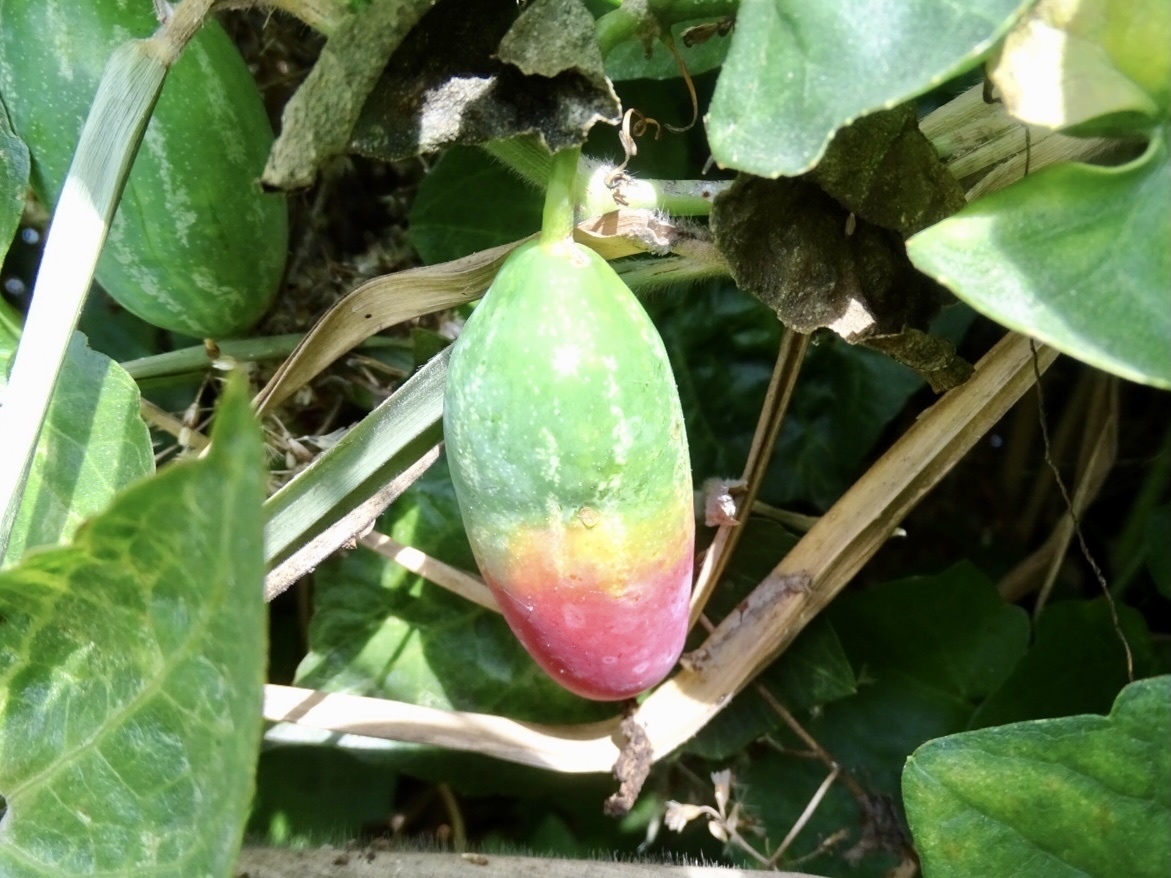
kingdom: Plantae
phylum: Tracheophyta
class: Magnoliopsida
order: Cucurbitales
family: Cucurbitaceae
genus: Coccinia
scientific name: Coccinia grandis
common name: Ivy gourd
